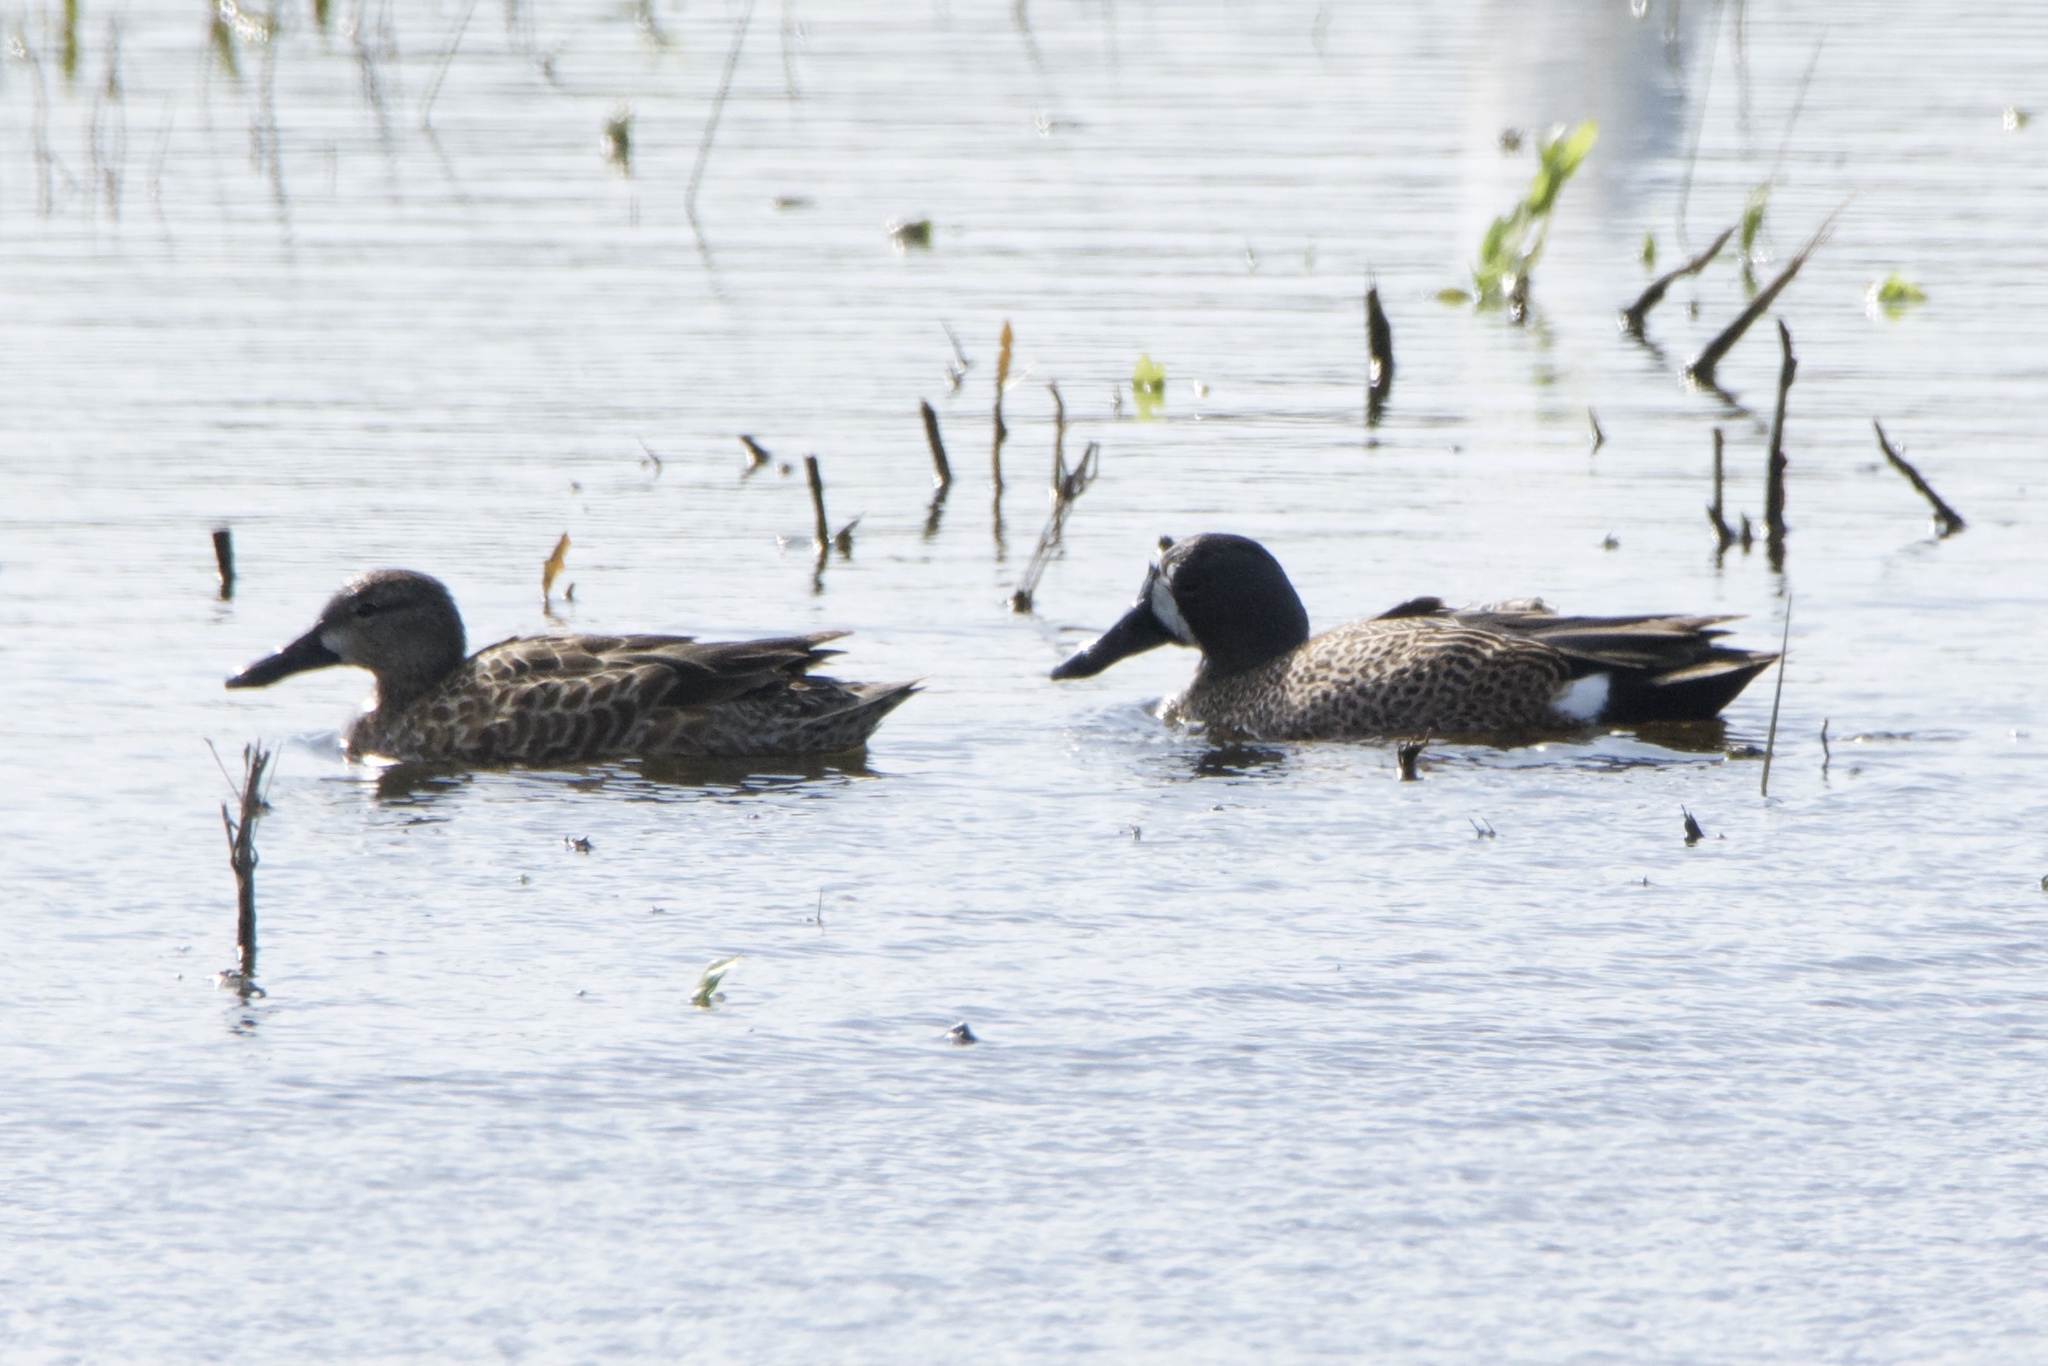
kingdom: Animalia
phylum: Chordata
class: Aves
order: Anseriformes
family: Anatidae
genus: Spatula
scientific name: Spatula discors
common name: Blue-winged teal
